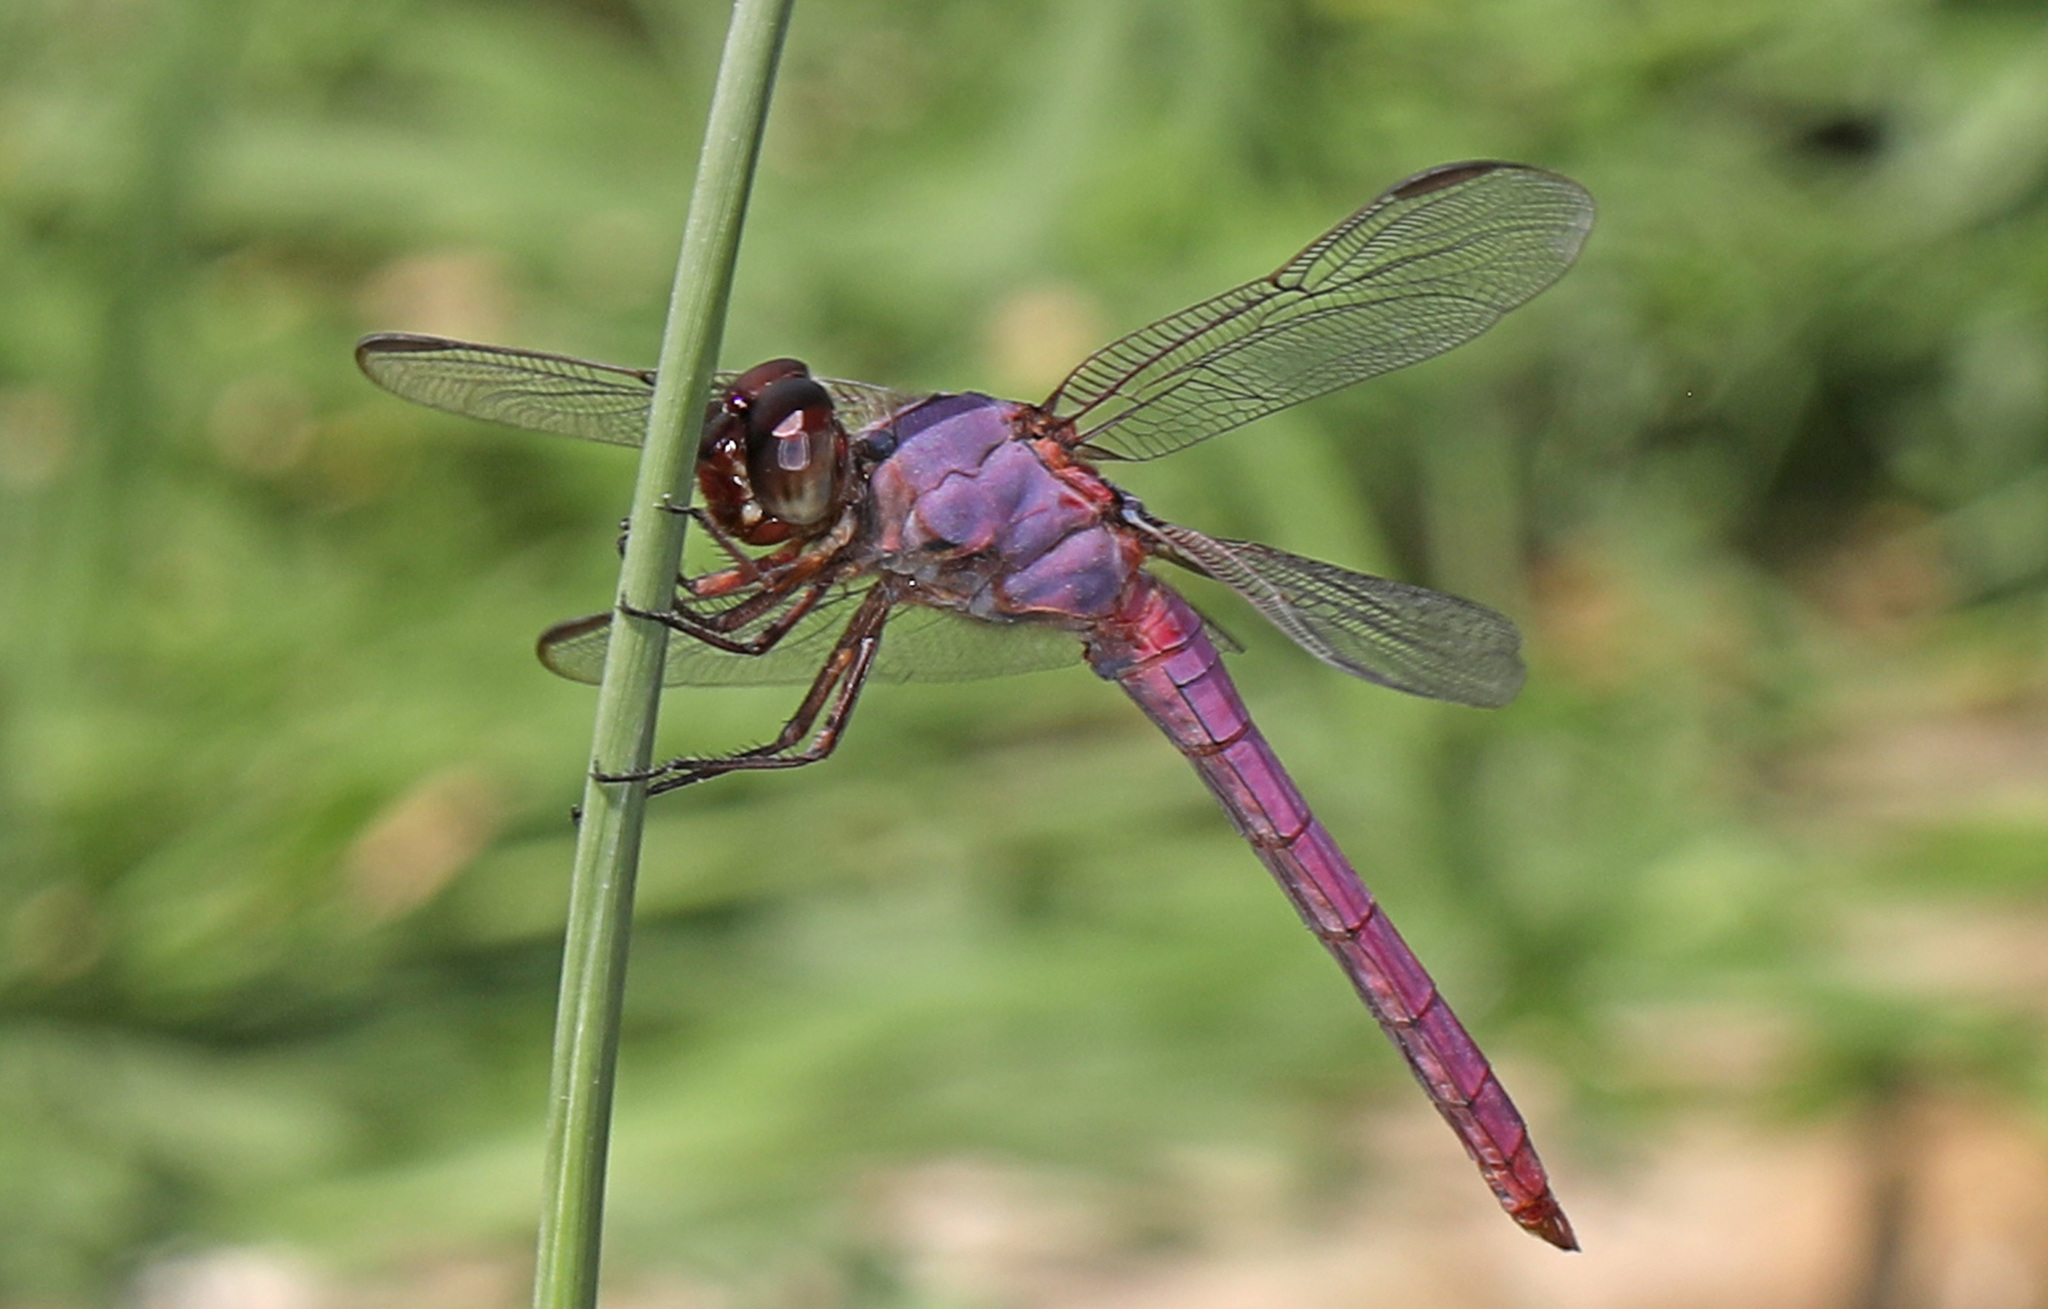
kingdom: Animalia
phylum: Arthropoda
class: Insecta
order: Odonata
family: Libellulidae
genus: Orthemis
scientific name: Orthemis ferruginea
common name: Roseate skimmer
